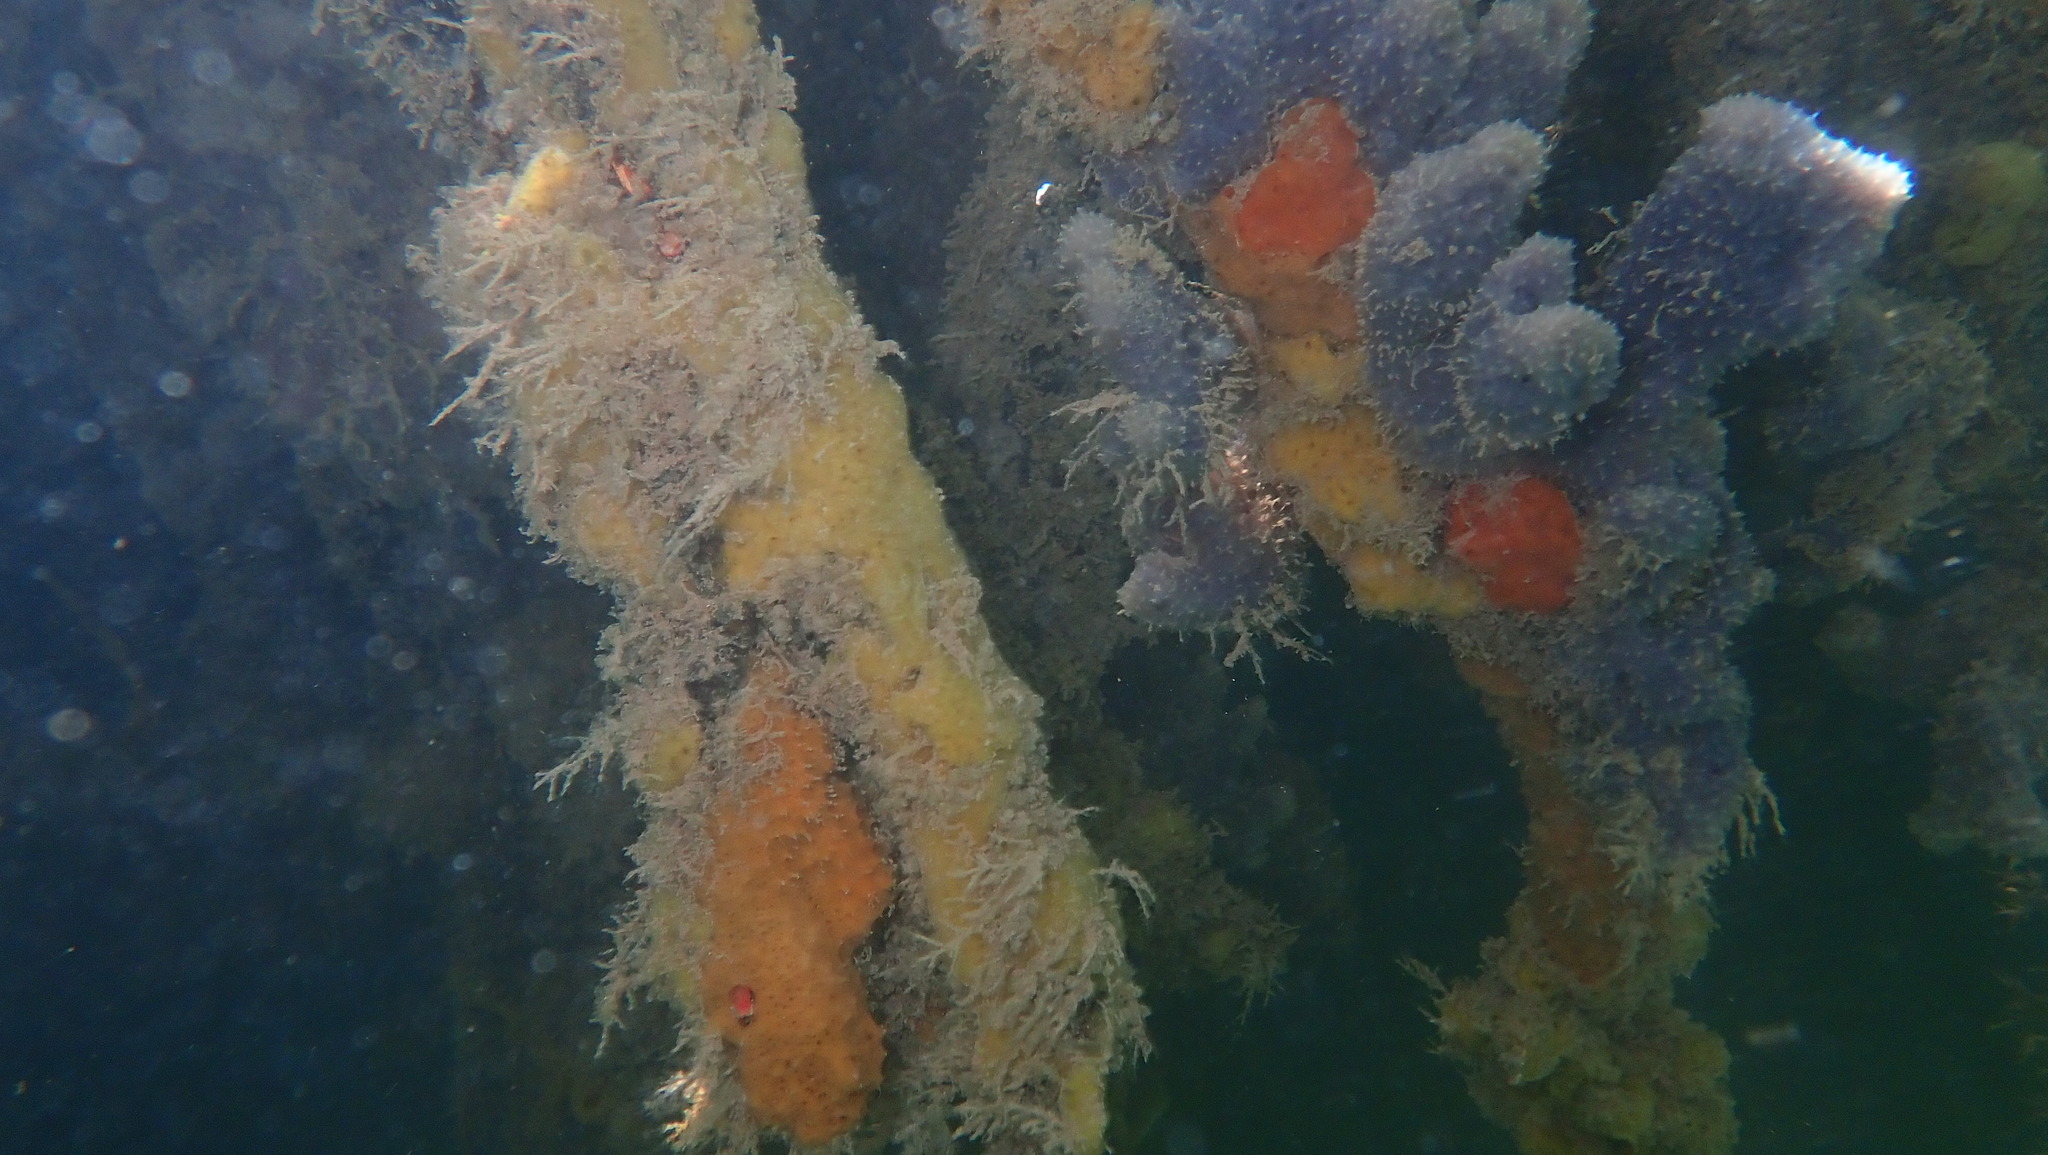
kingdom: Animalia
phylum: Porifera
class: Demospongiae
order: Scopalinida
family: Scopalinidae
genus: Scopalina
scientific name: Scopalina ruetzleri
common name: Orange lumpy encrusting sponge
